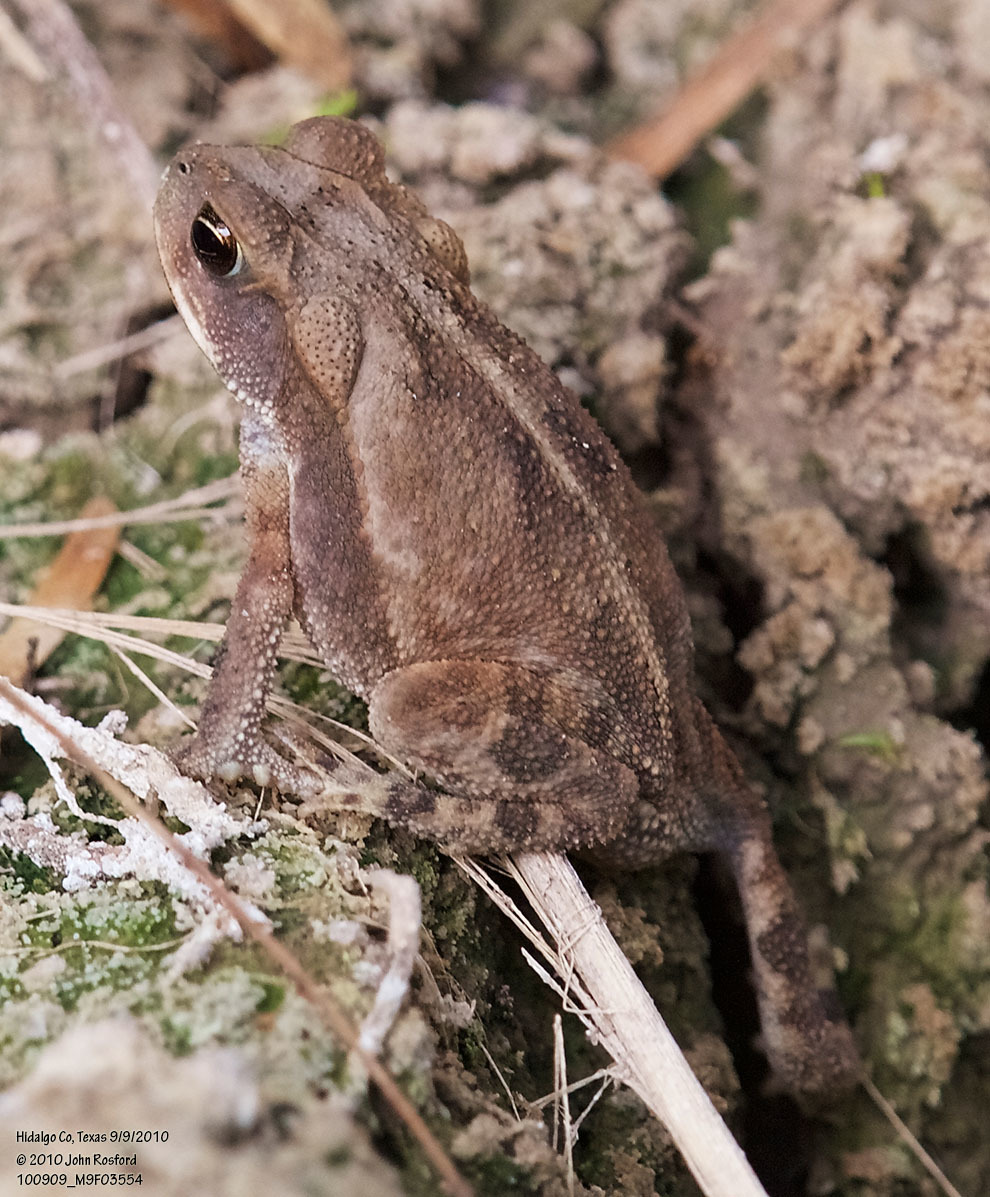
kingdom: Animalia
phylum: Chordata
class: Amphibia
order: Anura
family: Bufonidae
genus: Incilius
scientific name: Incilius nebulifer
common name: Gulf coast toad
